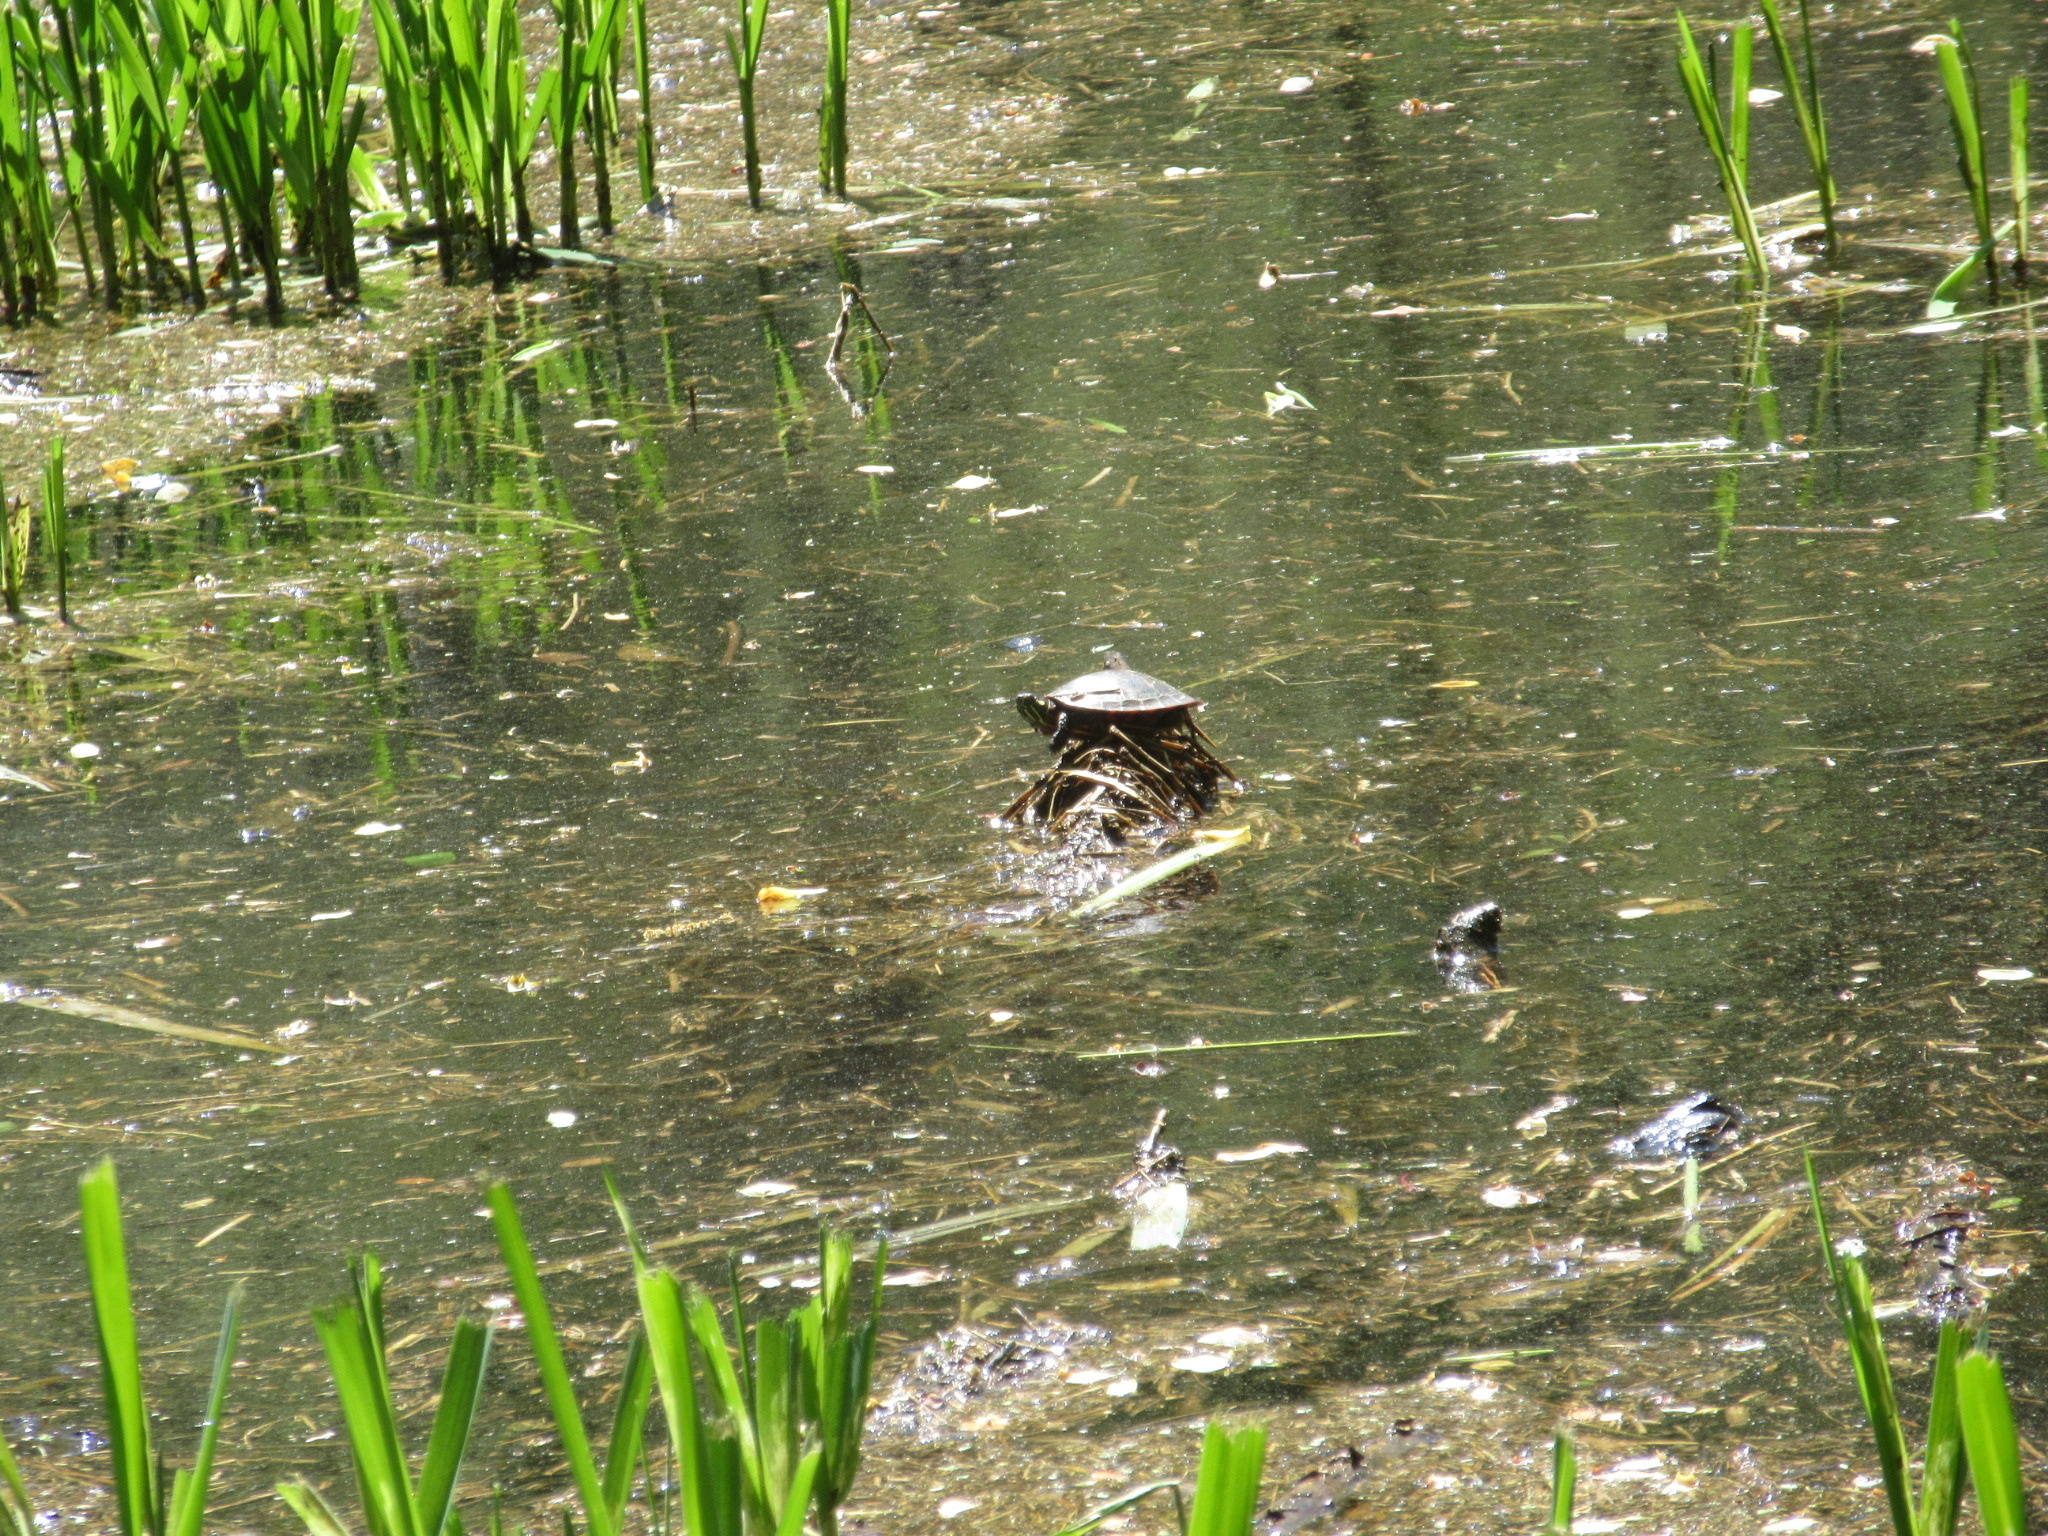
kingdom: Animalia
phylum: Chordata
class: Testudines
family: Emydidae
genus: Chrysemys
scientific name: Chrysemys picta
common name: Painted turtle
